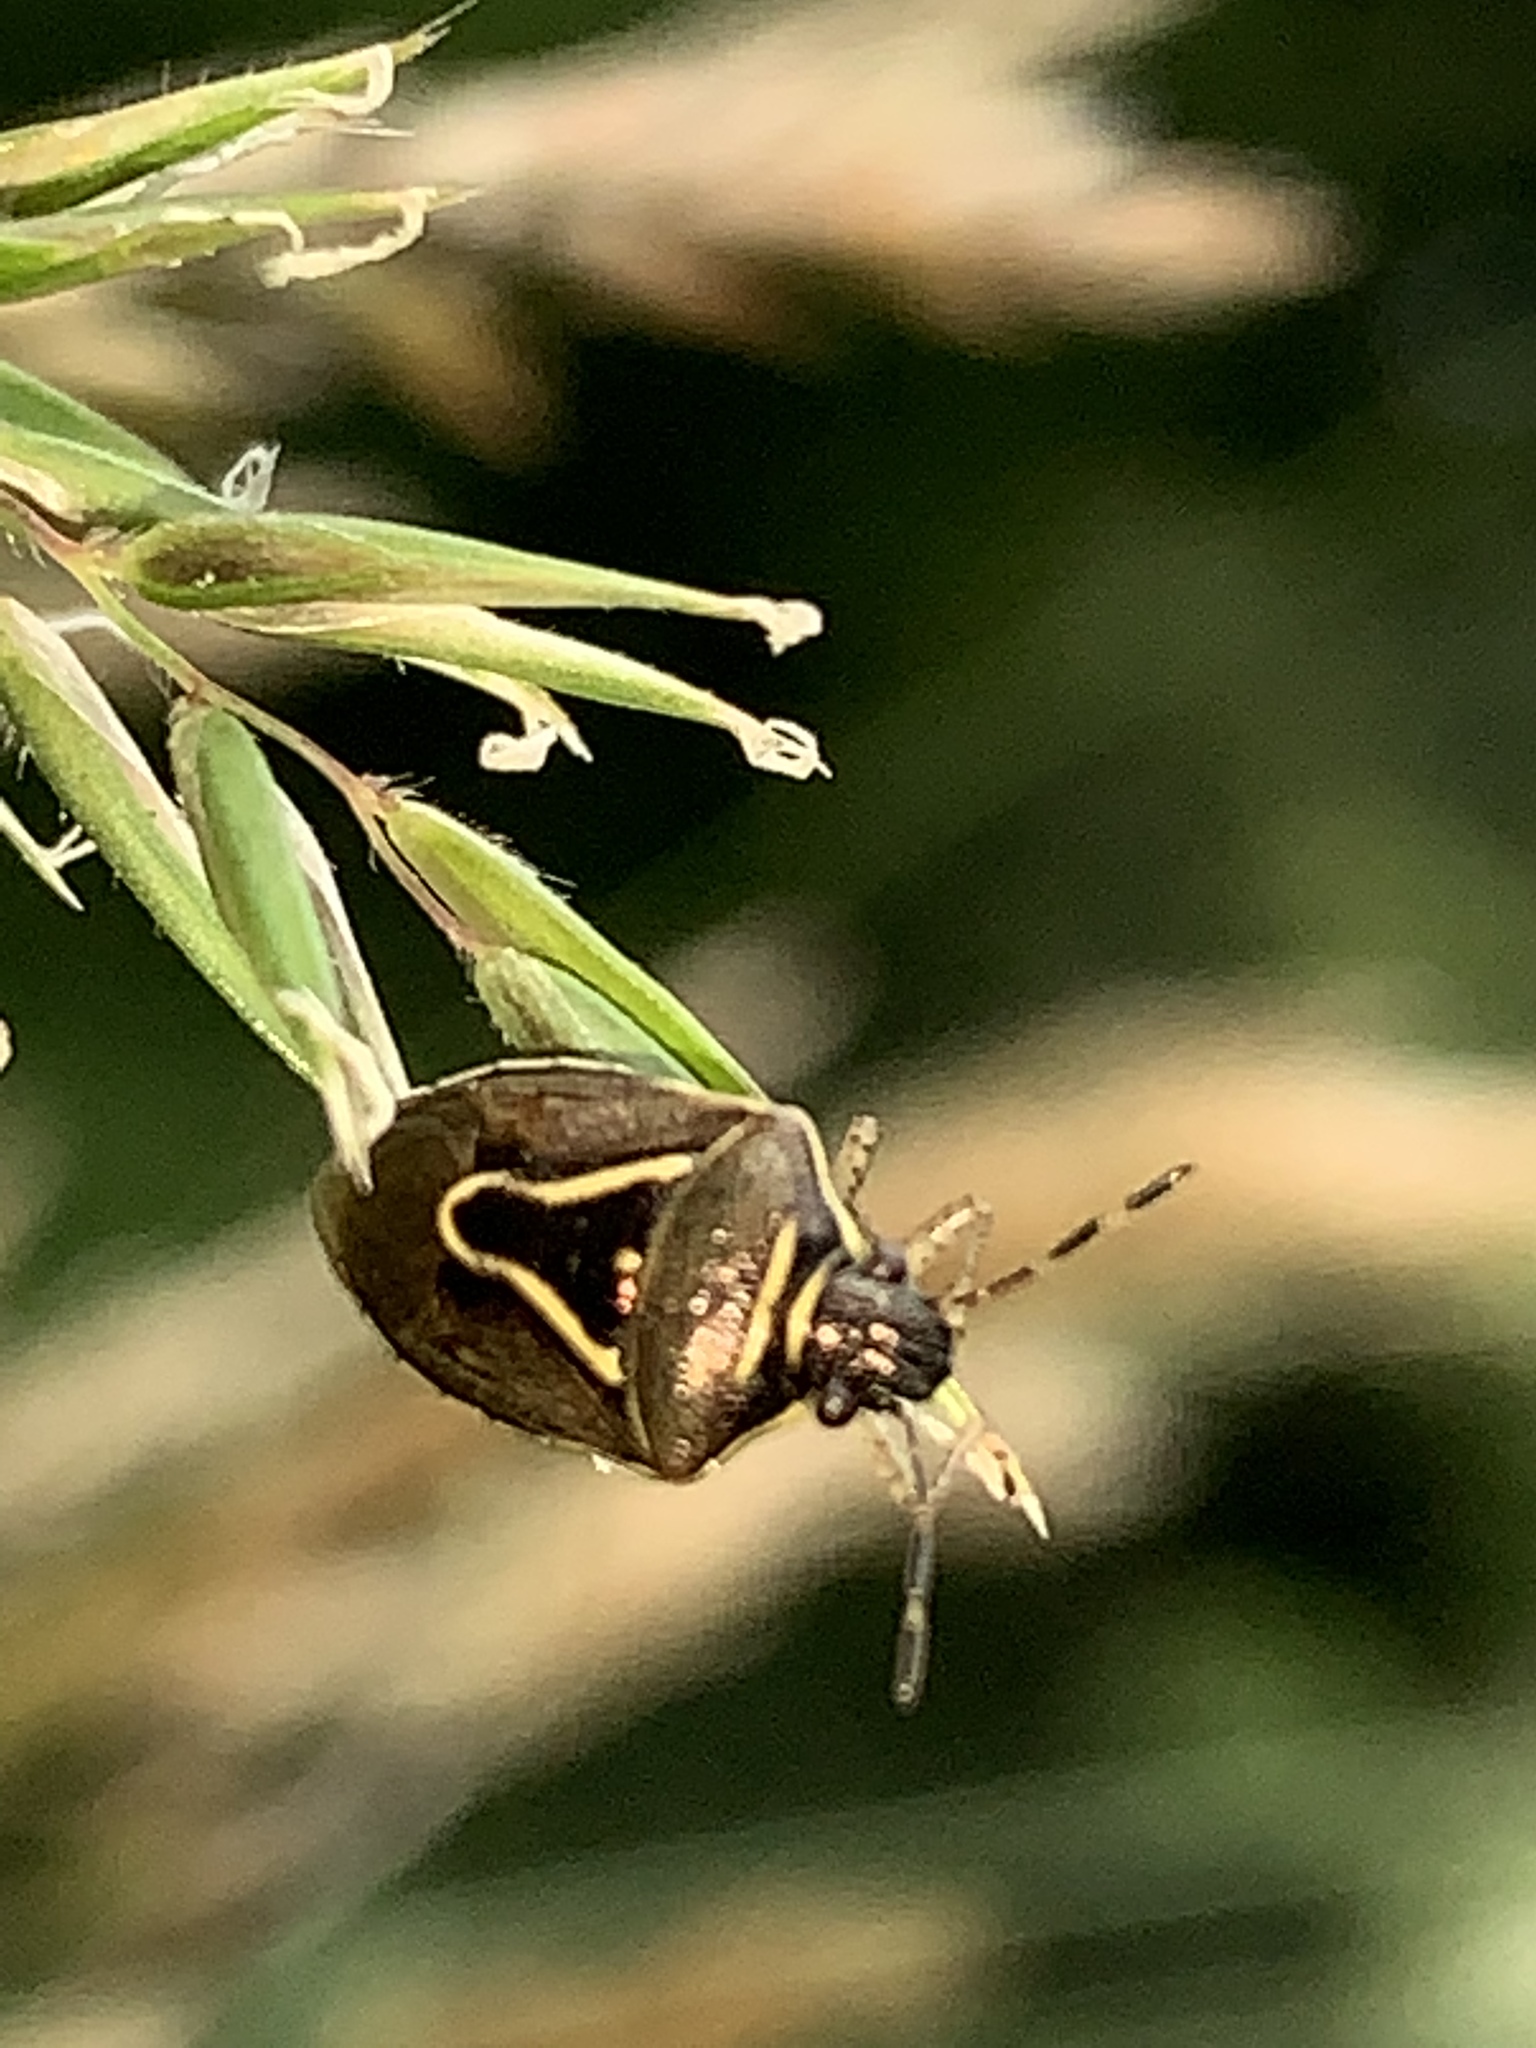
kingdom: Animalia
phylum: Arthropoda
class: Insecta
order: Hemiptera
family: Pentatomidae
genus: Mormidea
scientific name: Mormidea lugens
